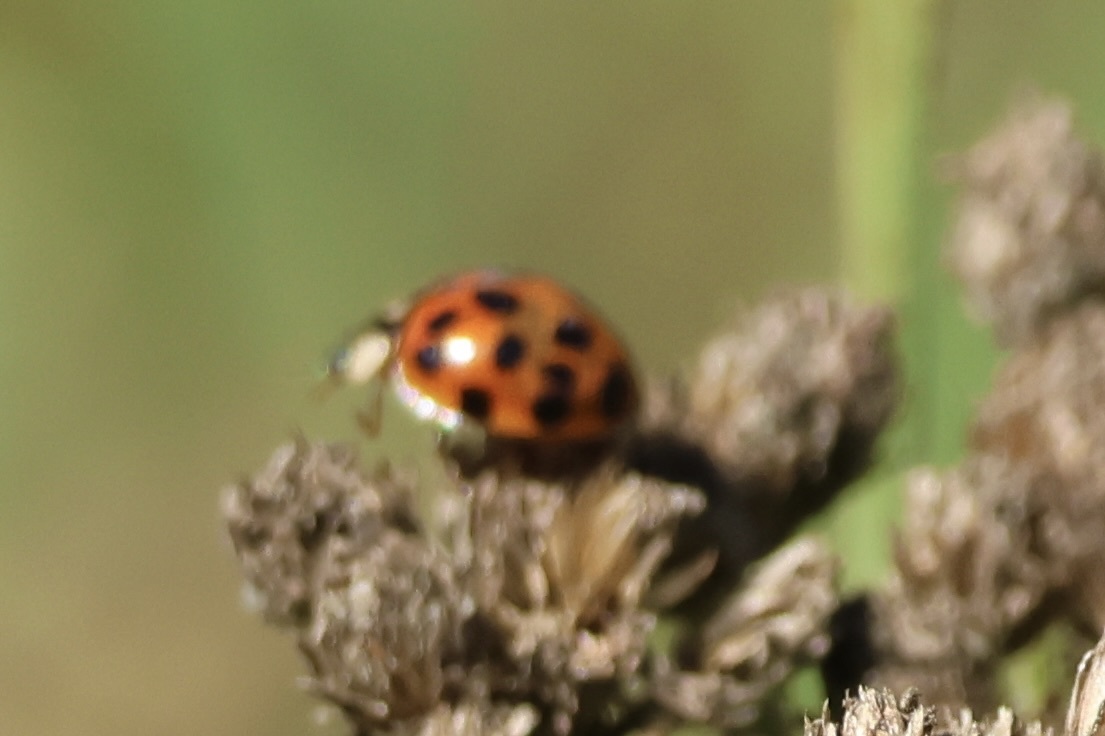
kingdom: Animalia
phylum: Arthropoda
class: Insecta
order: Coleoptera
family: Coccinellidae
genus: Harmonia
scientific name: Harmonia axyridis
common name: Harlequin ladybird
